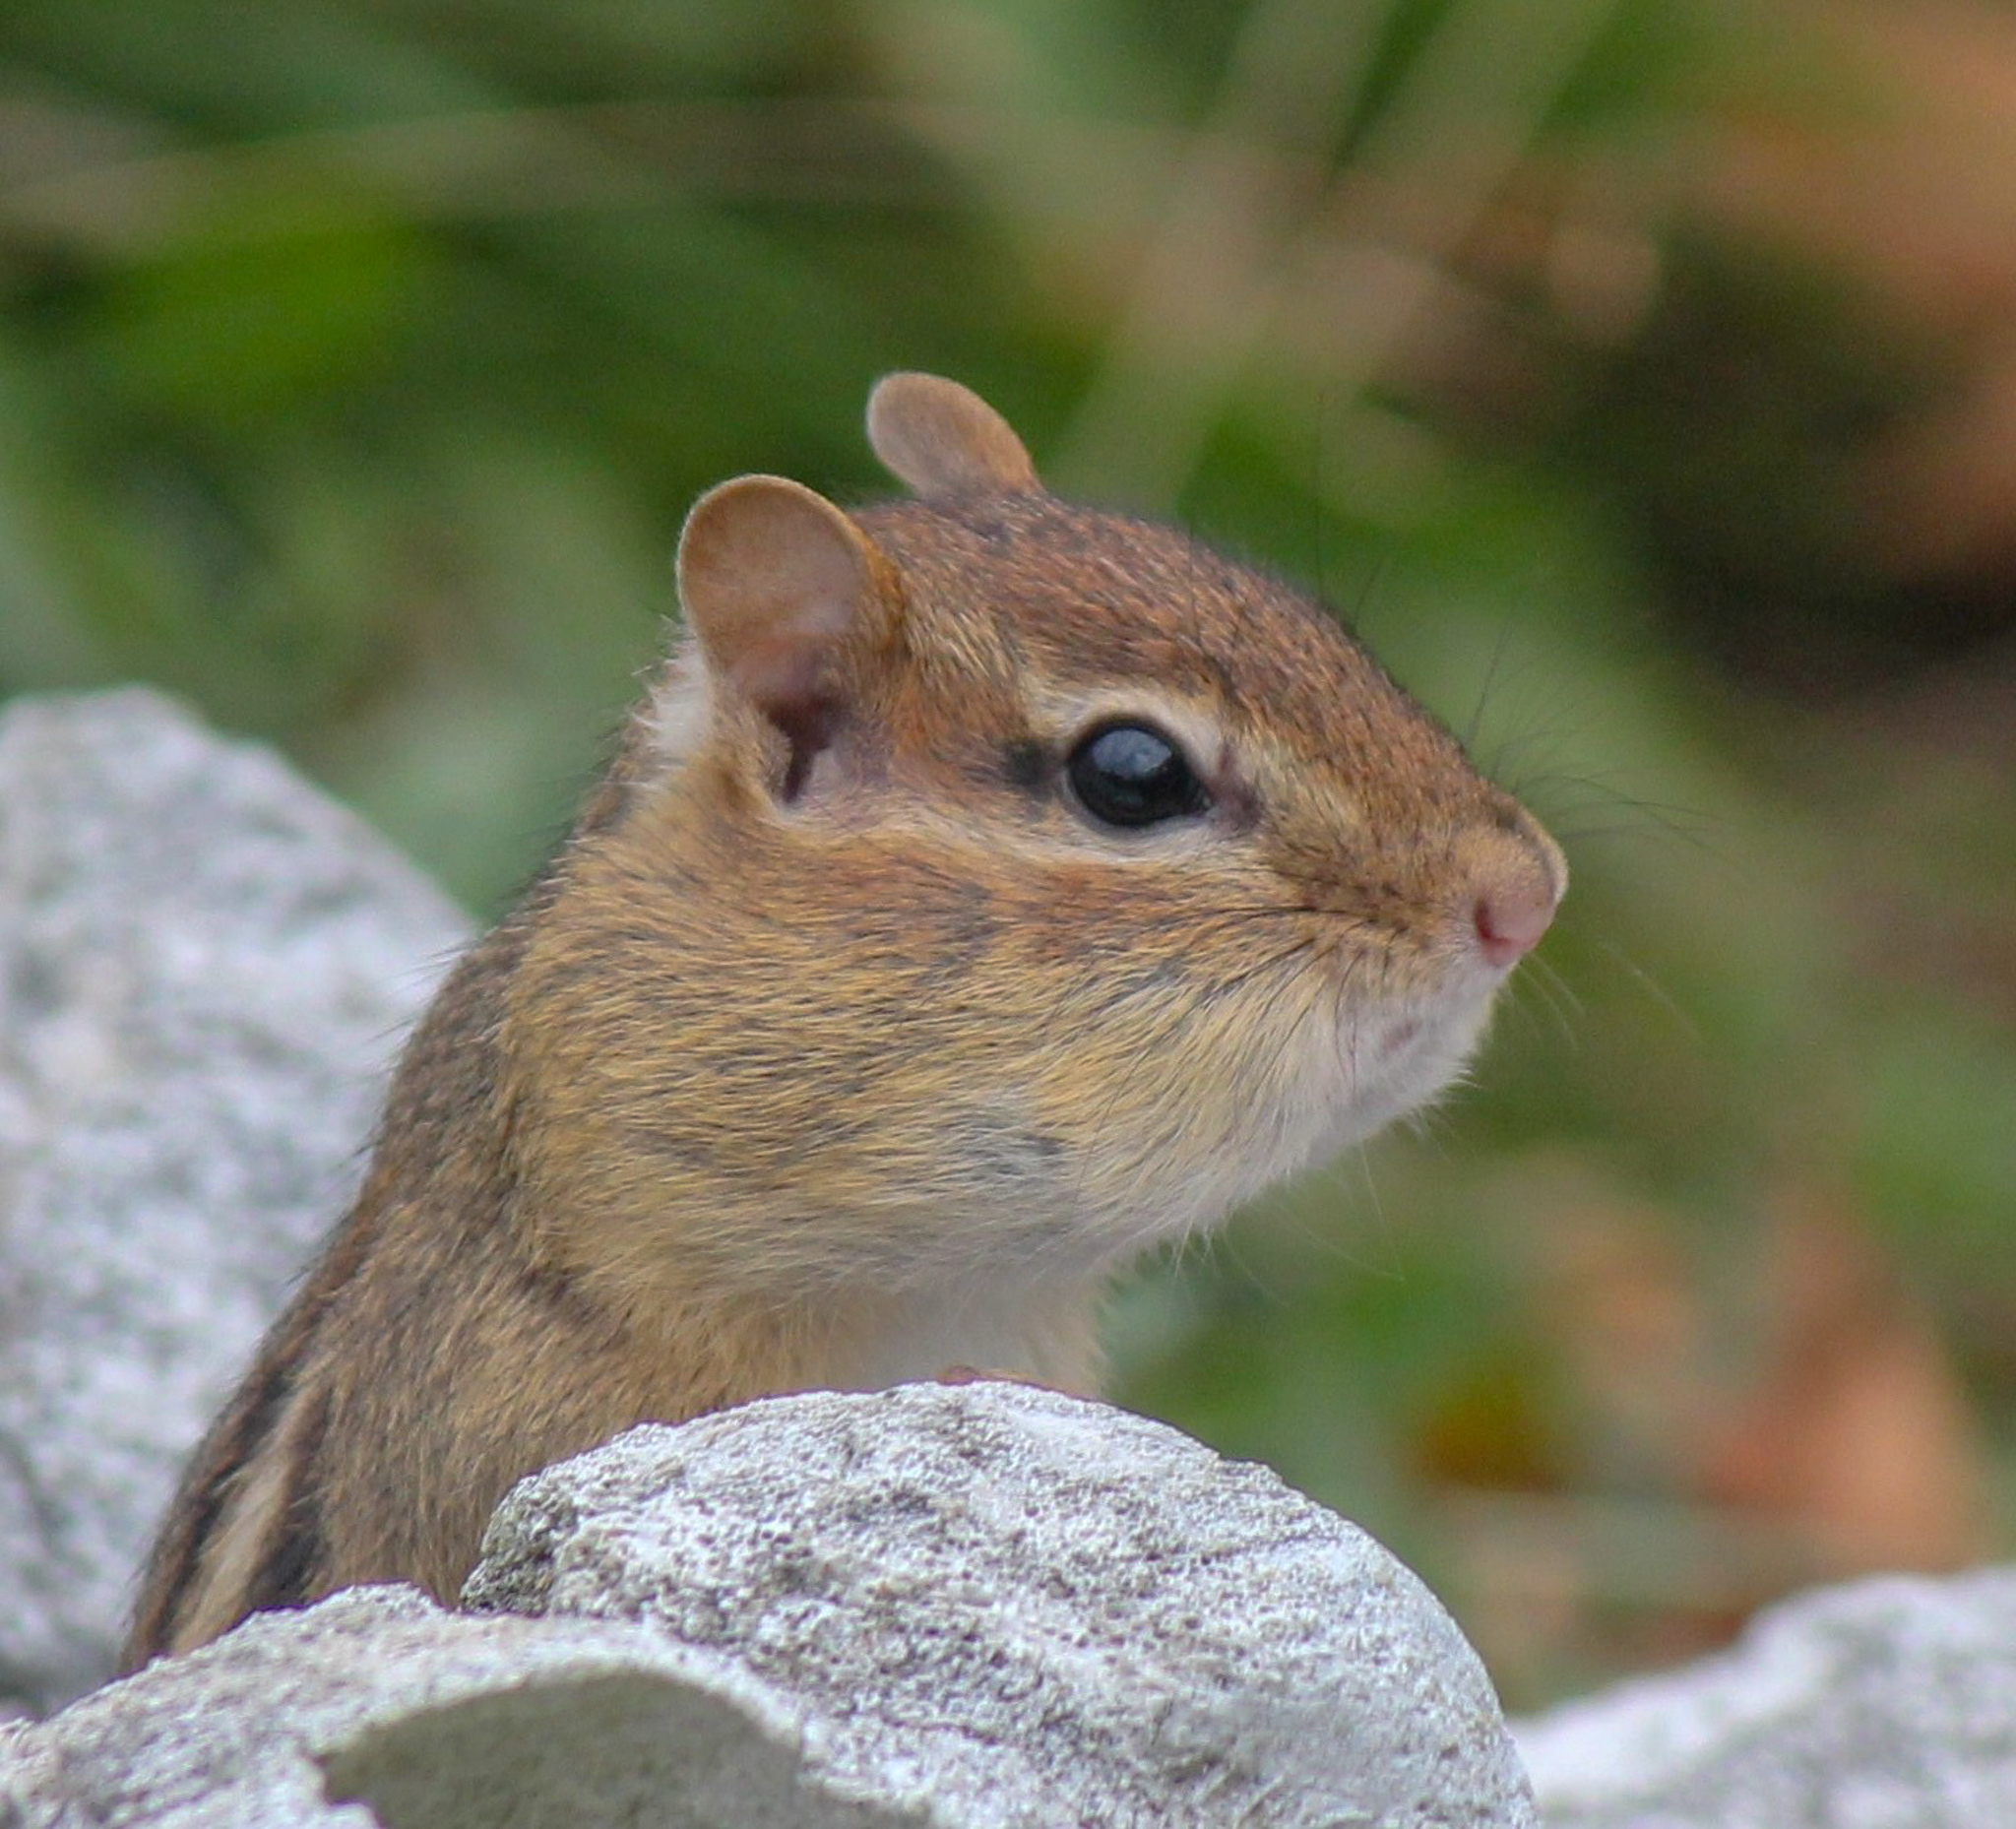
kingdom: Animalia
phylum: Chordata
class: Mammalia
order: Rodentia
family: Sciuridae
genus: Tamias
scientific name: Tamias striatus
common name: Eastern chipmunk
